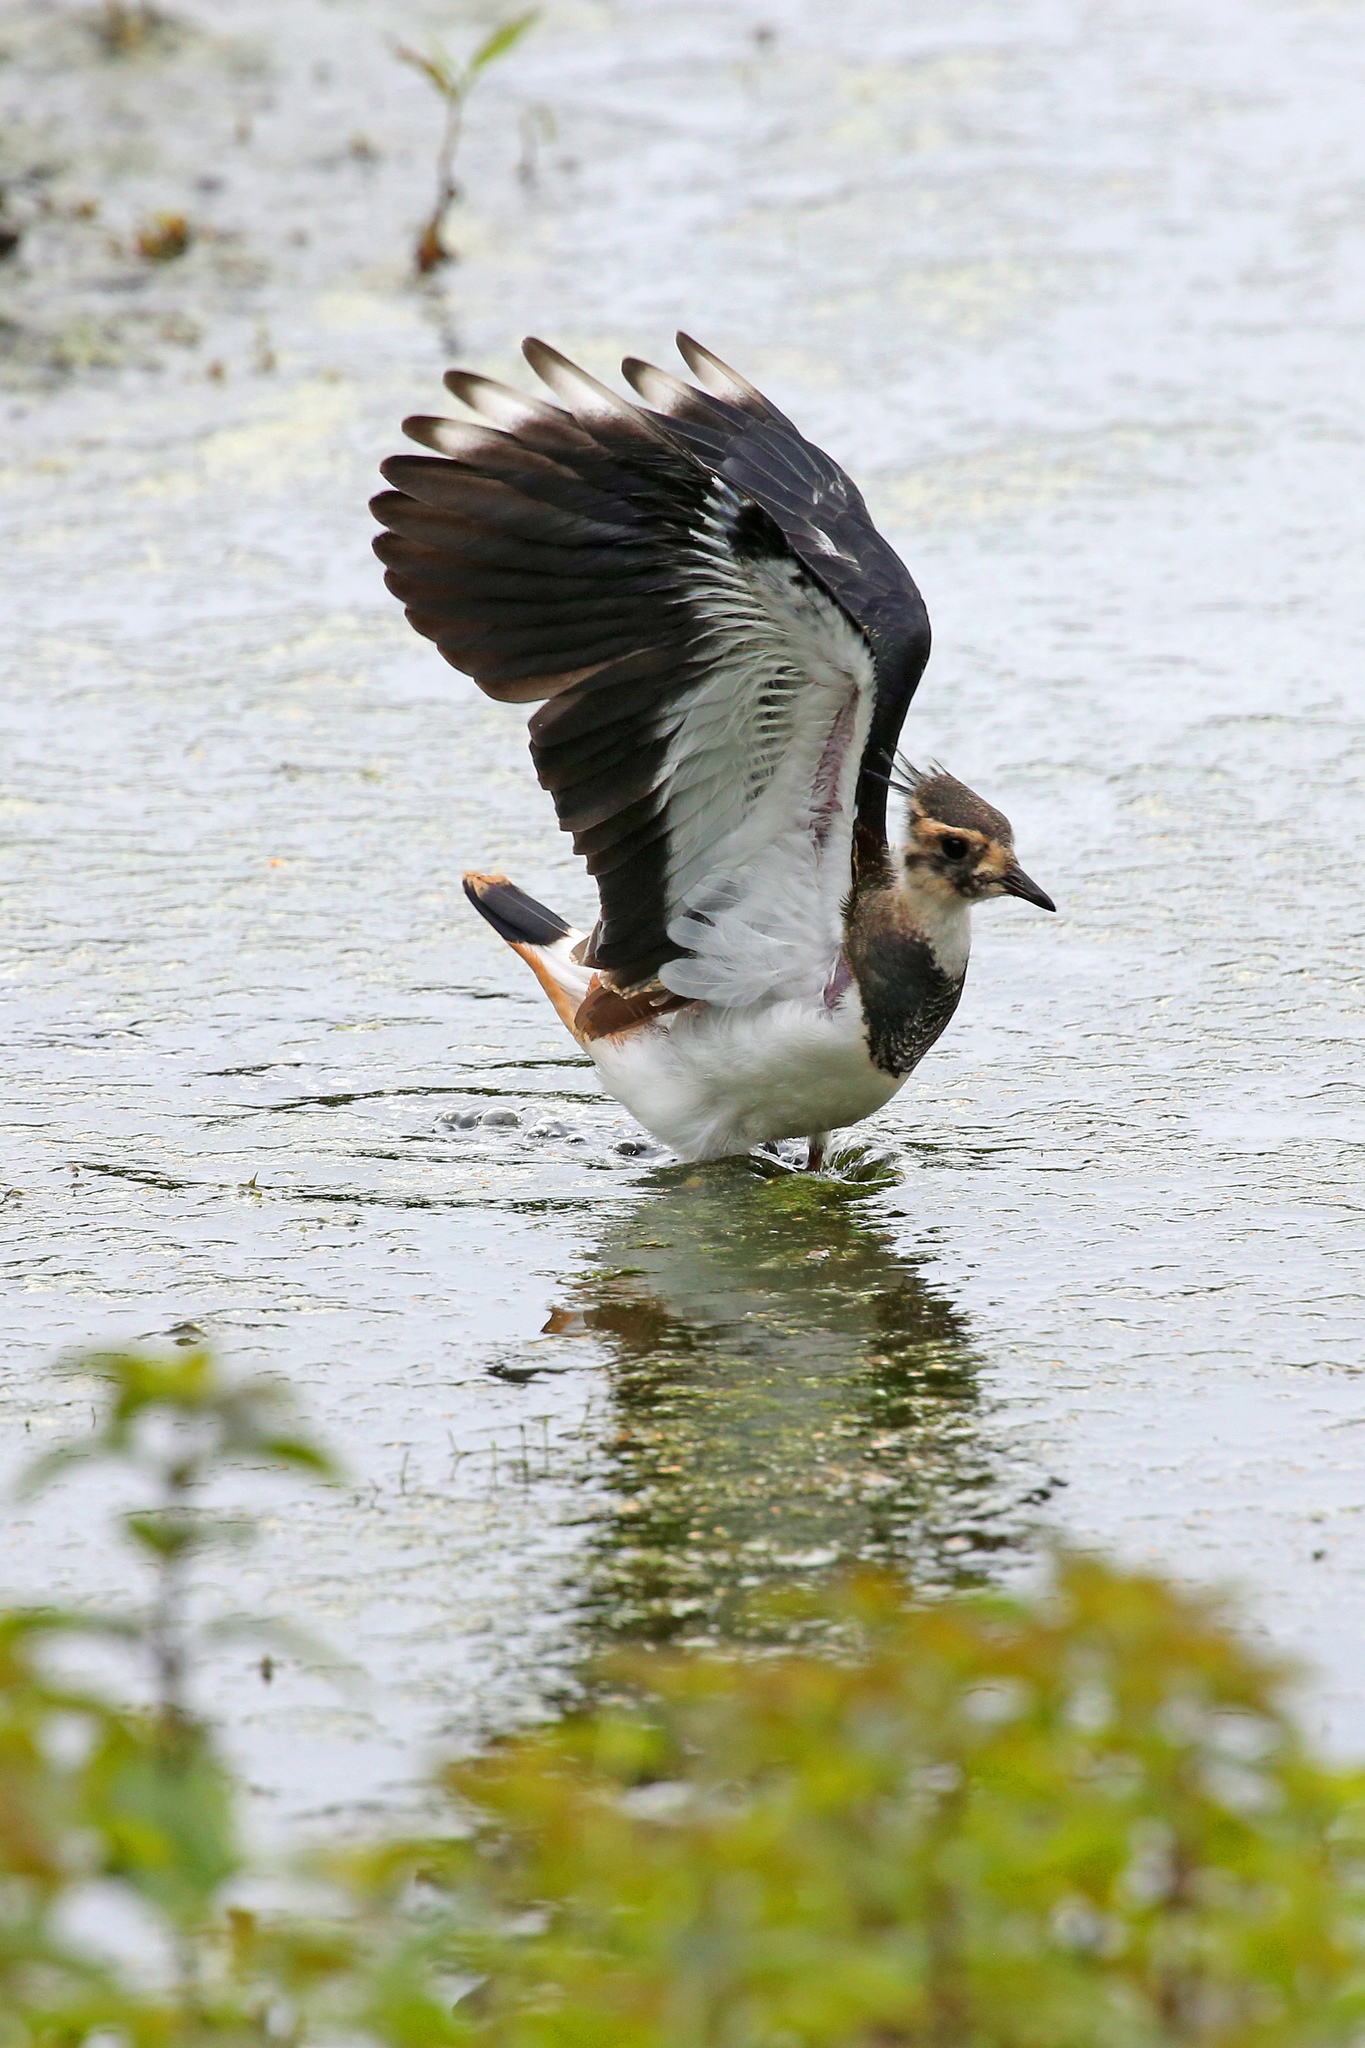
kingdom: Animalia
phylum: Chordata
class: Aves
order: Charadriiformes
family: Charadriidae
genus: Vanellus
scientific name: Vanellus vanellus
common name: Northern lapwing
